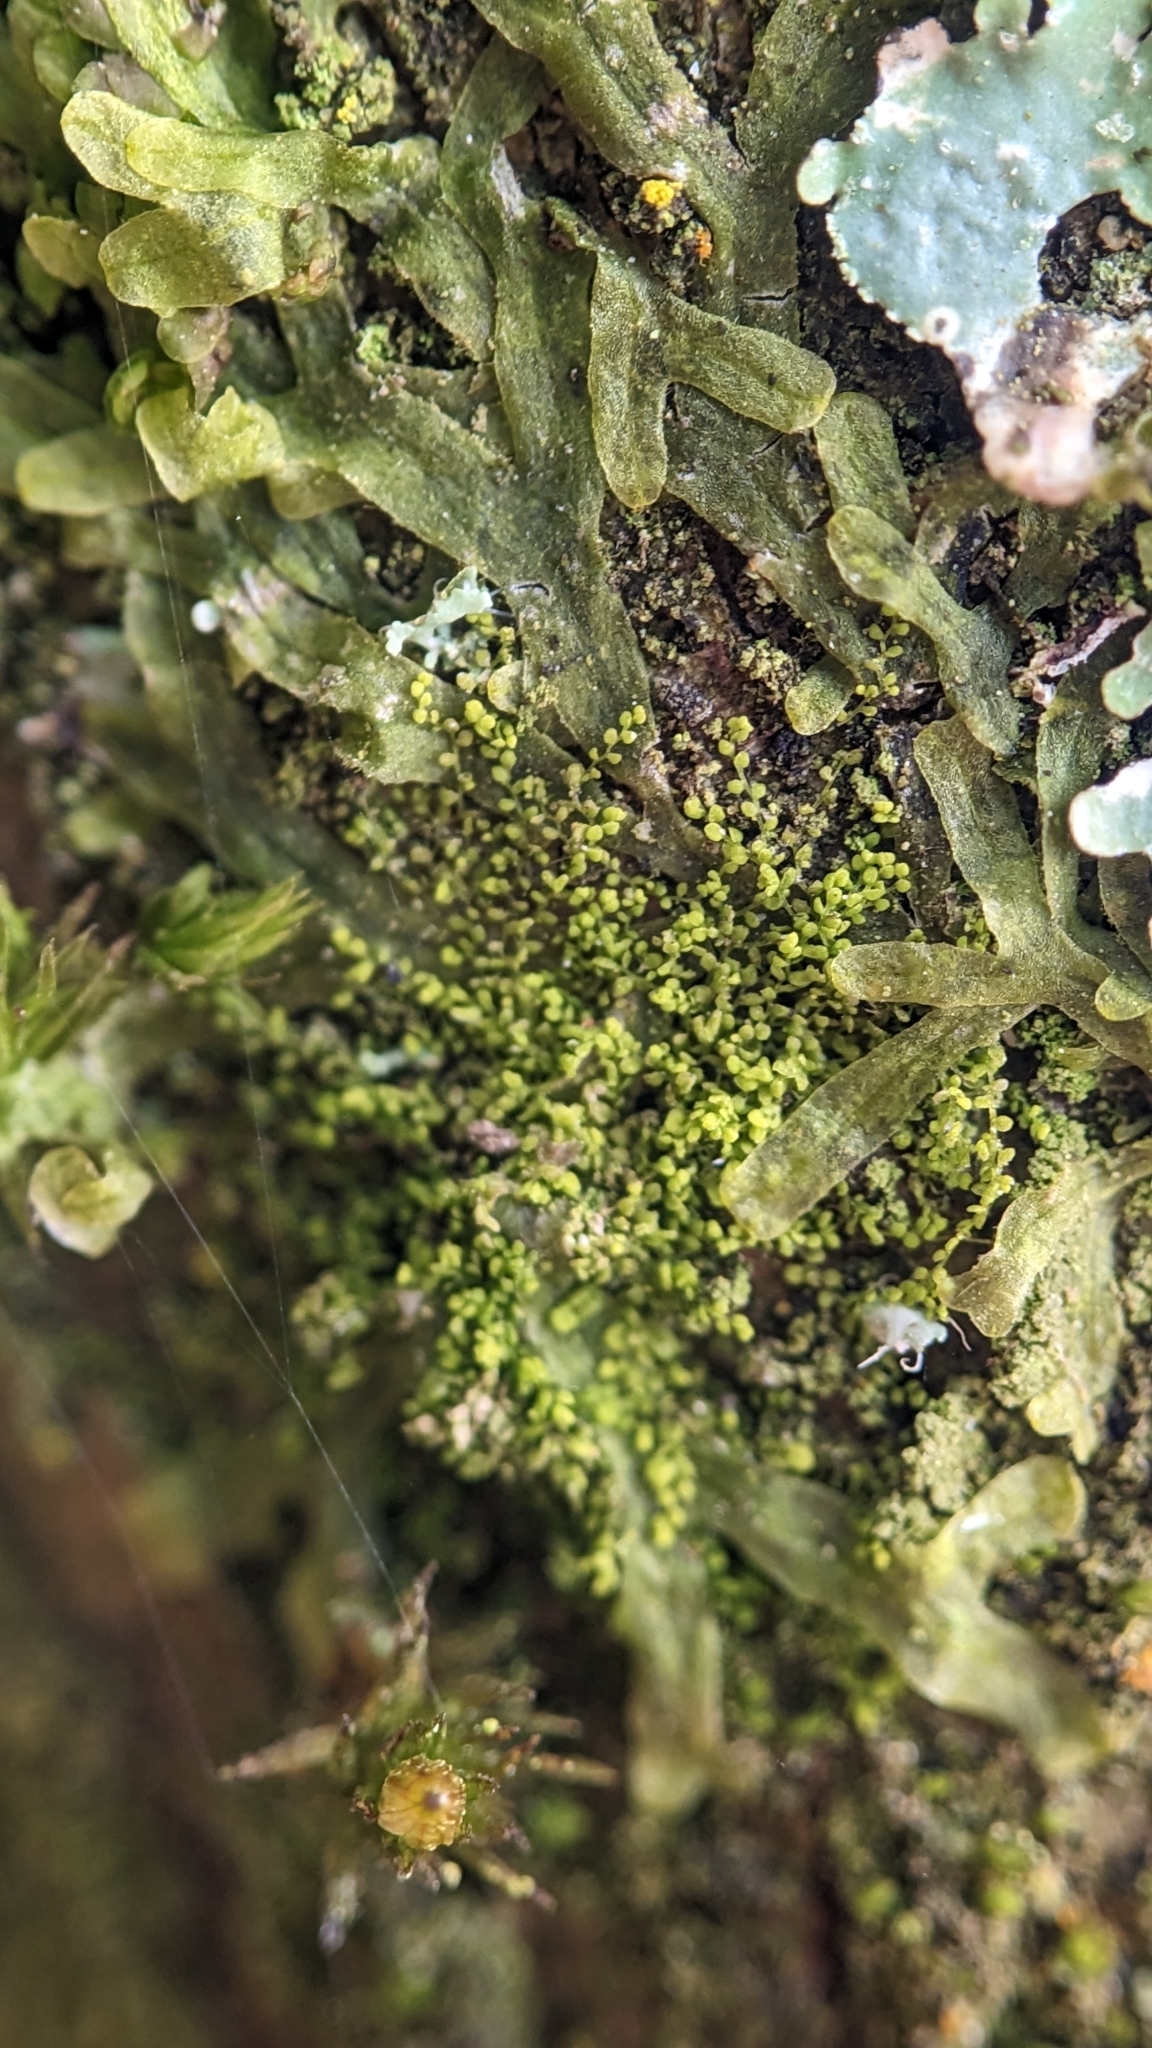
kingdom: Plantae
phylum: Marchantiophyta
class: Jungermanniopsida
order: Porellales
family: Lejeuneaceae
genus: Myriocoleopsis
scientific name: Myriocoleopsis minutissima
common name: Minute pouncewort
